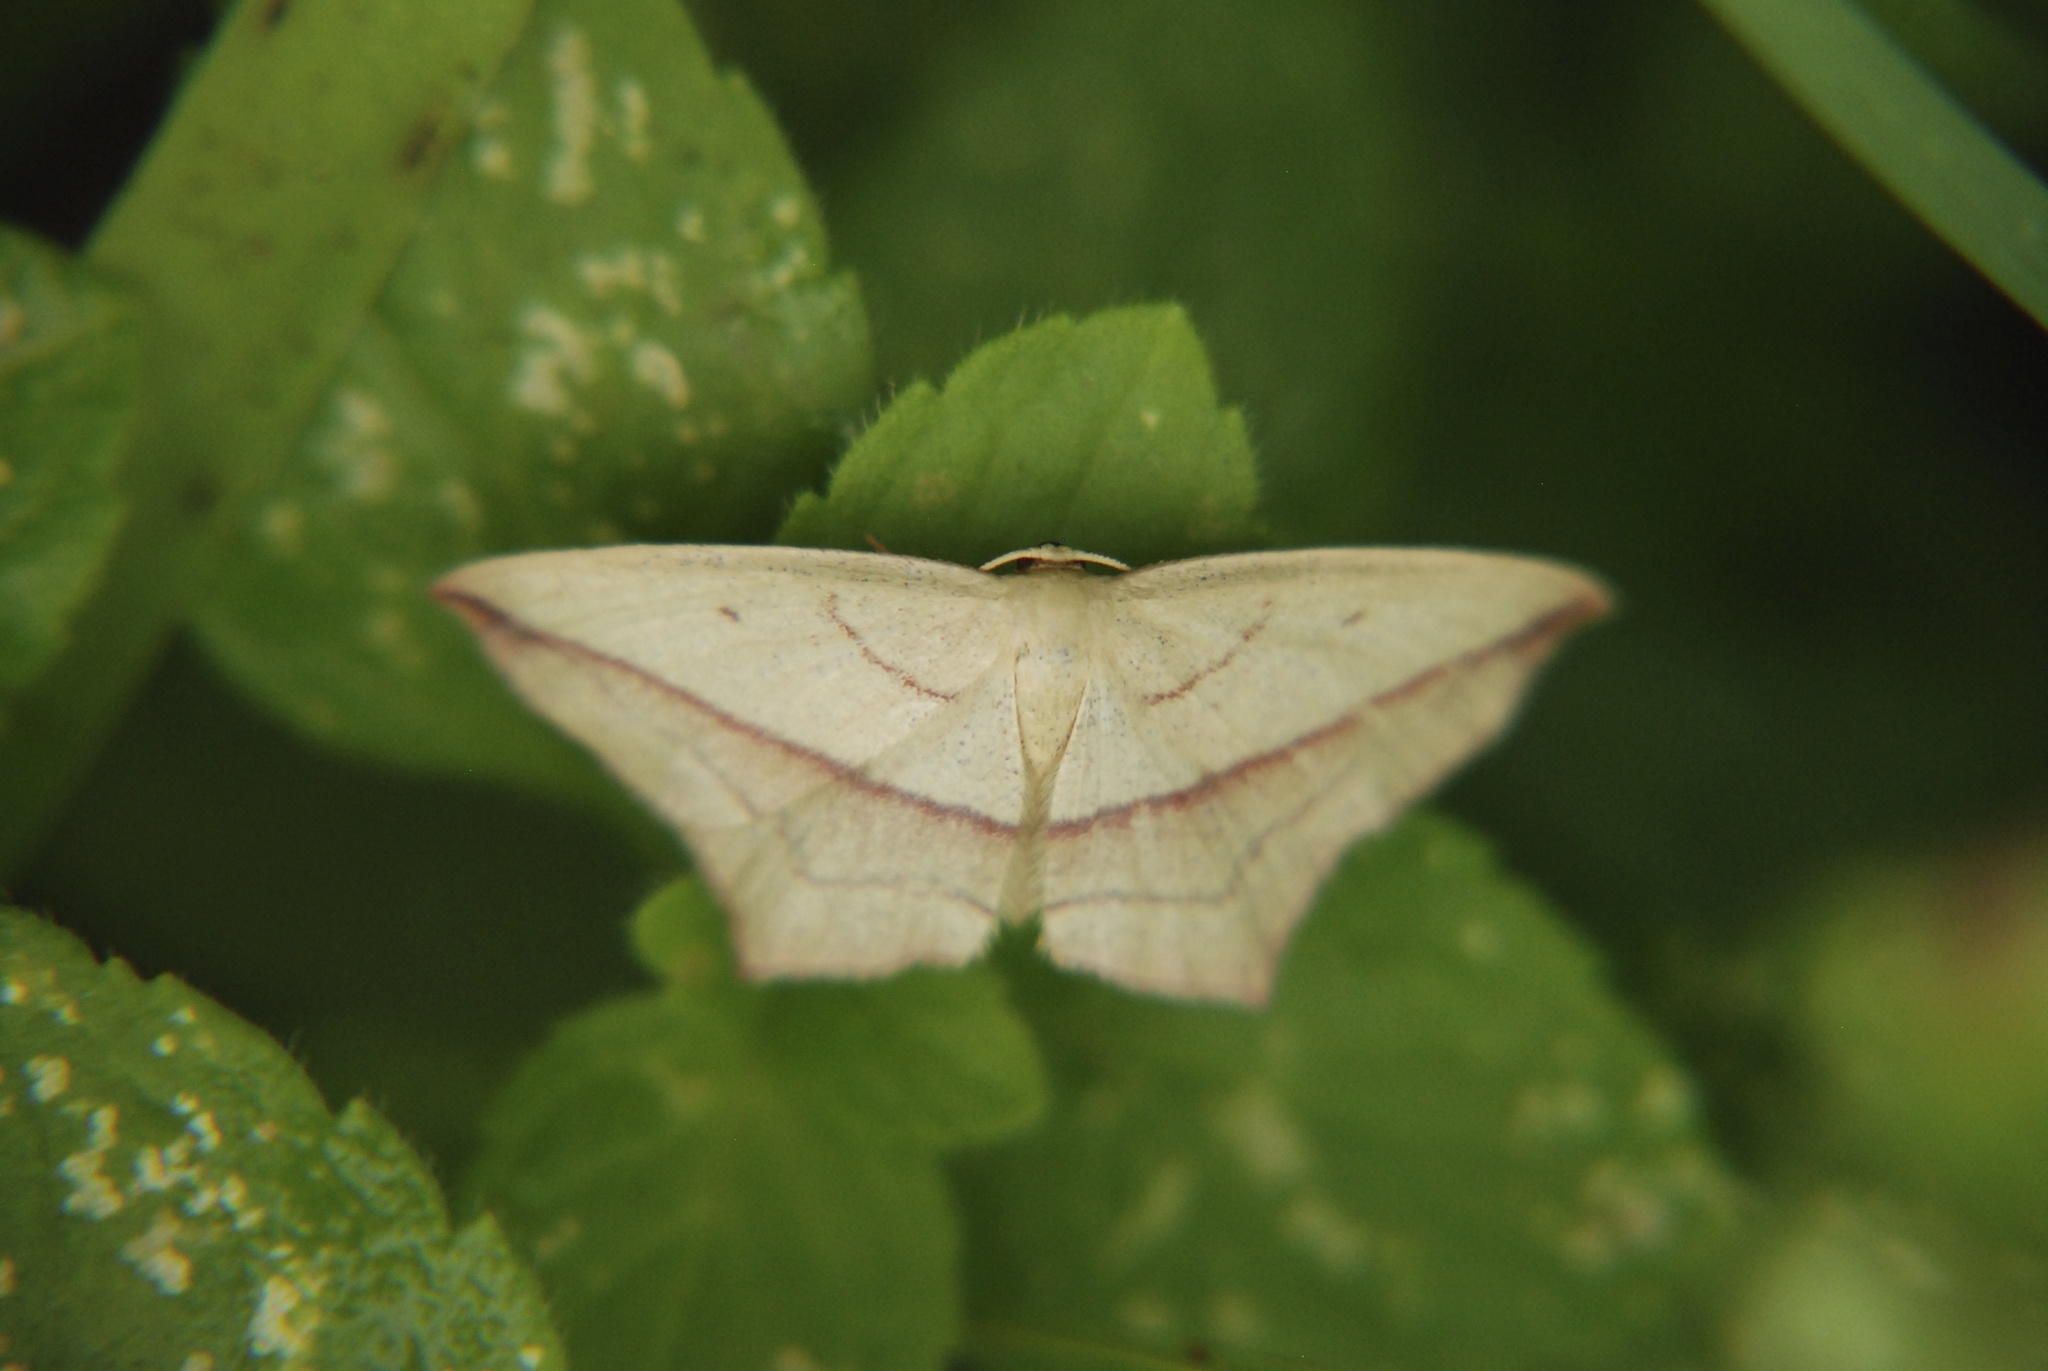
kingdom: Animalia
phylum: Arthropoda
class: Insecta
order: Lepidoptera
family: Geometridae
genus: Timandra
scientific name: Timandra comae
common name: Blood-vein
